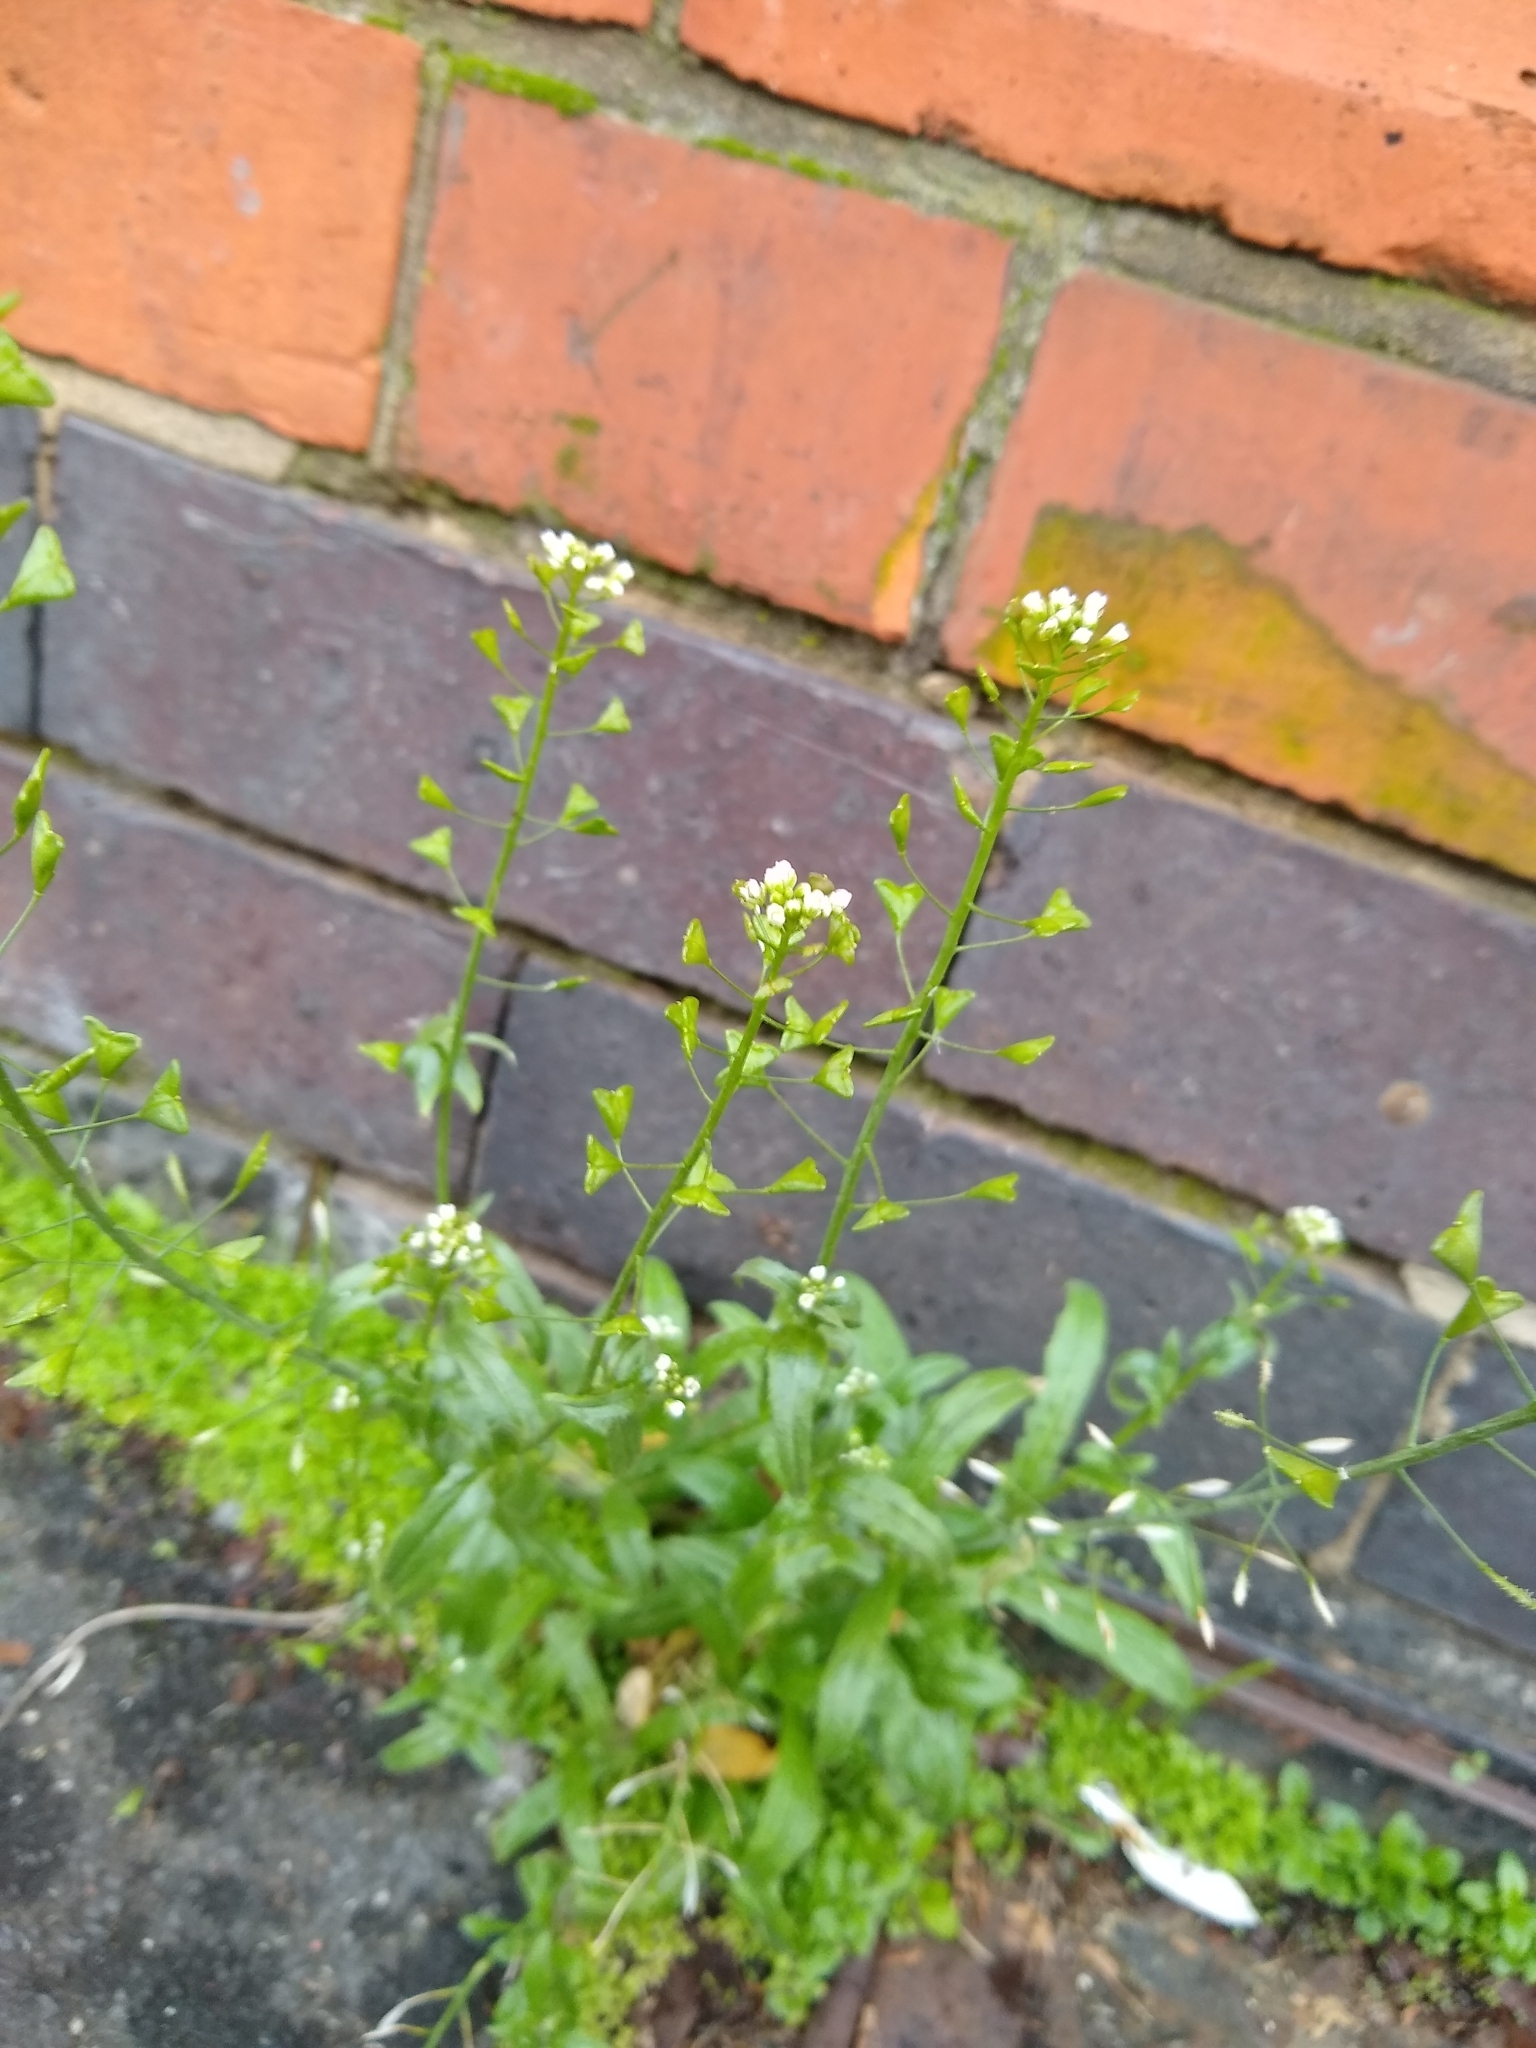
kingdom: Plantae
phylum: Tracheophyta
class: Magnoliopsida
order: Brassicales
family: Brassicaceae
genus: Capsella
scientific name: Capsella bursa-pastoris
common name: Shepherd's purse
